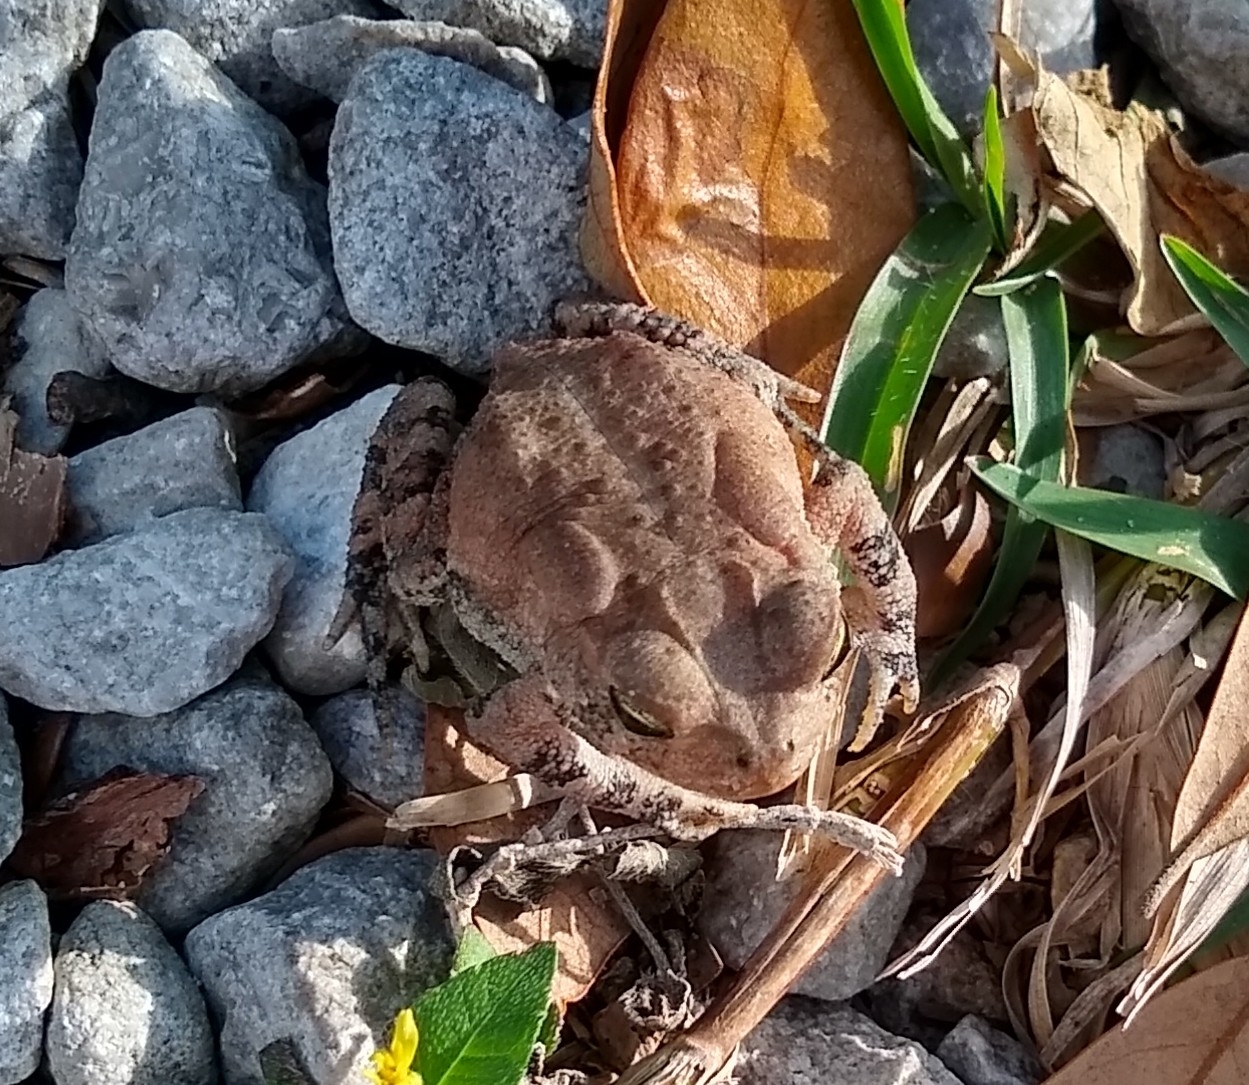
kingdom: Animalia
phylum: Chordata
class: Amphibia
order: Anura
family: Bufonidae
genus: Anaxyrus
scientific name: Anaxyrus terrestris
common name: Southern toad
